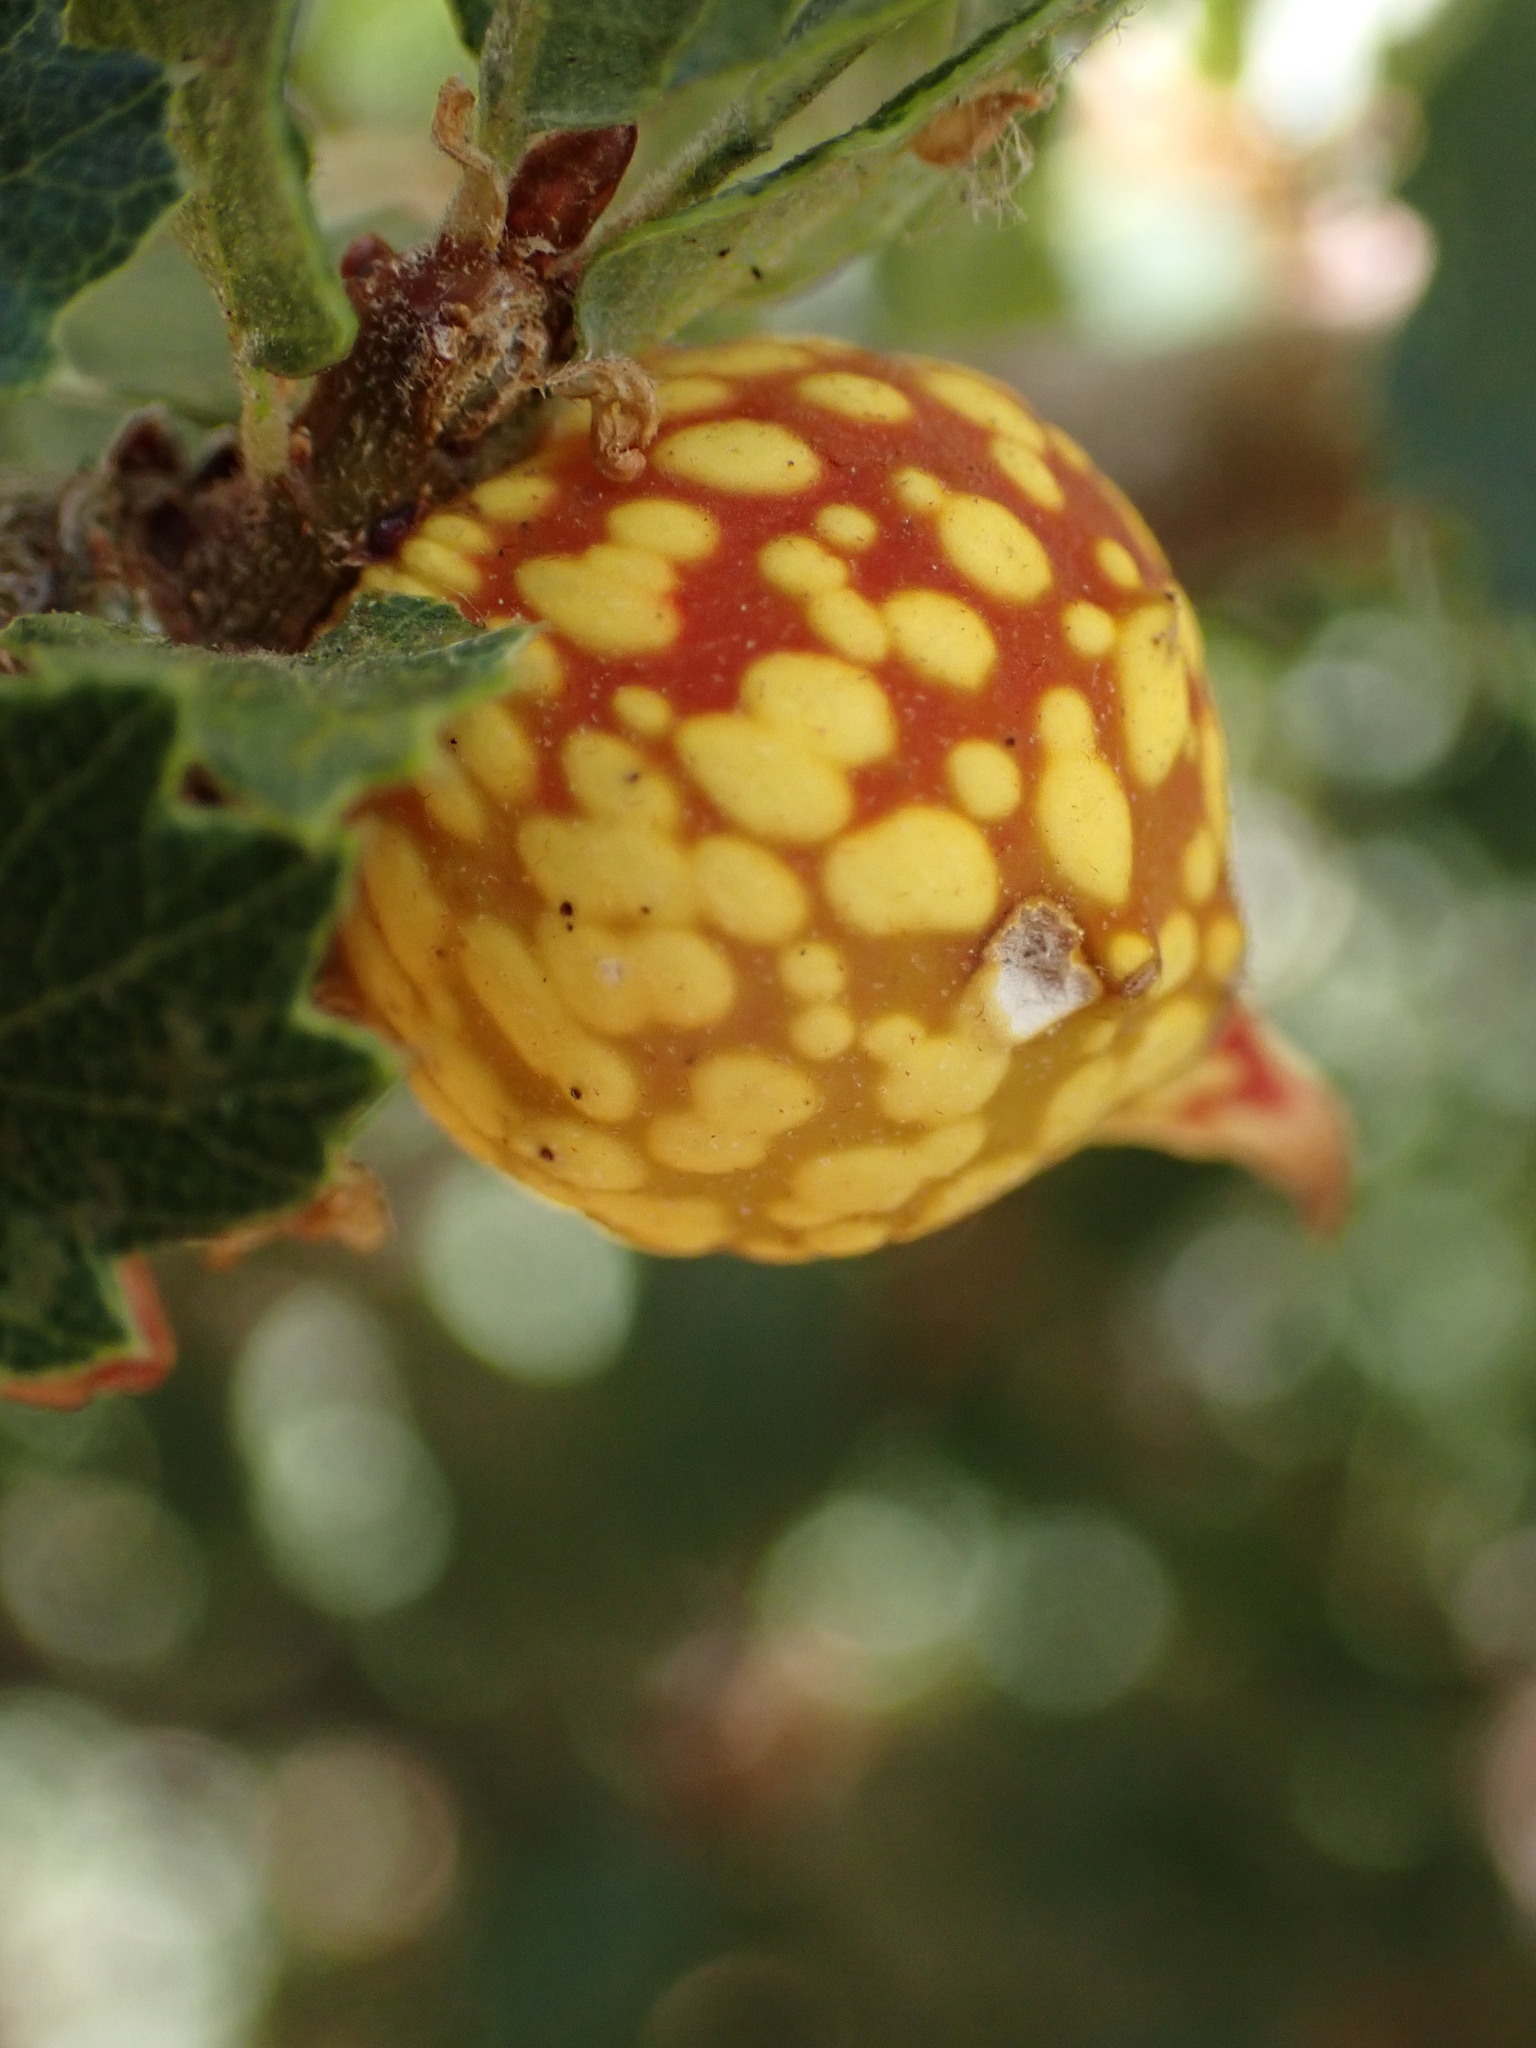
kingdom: Animalia
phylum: Arthropoda
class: Insecta
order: Hymenoptera
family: Cynipidae
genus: Burnettweldia
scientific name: Burnettweldia
